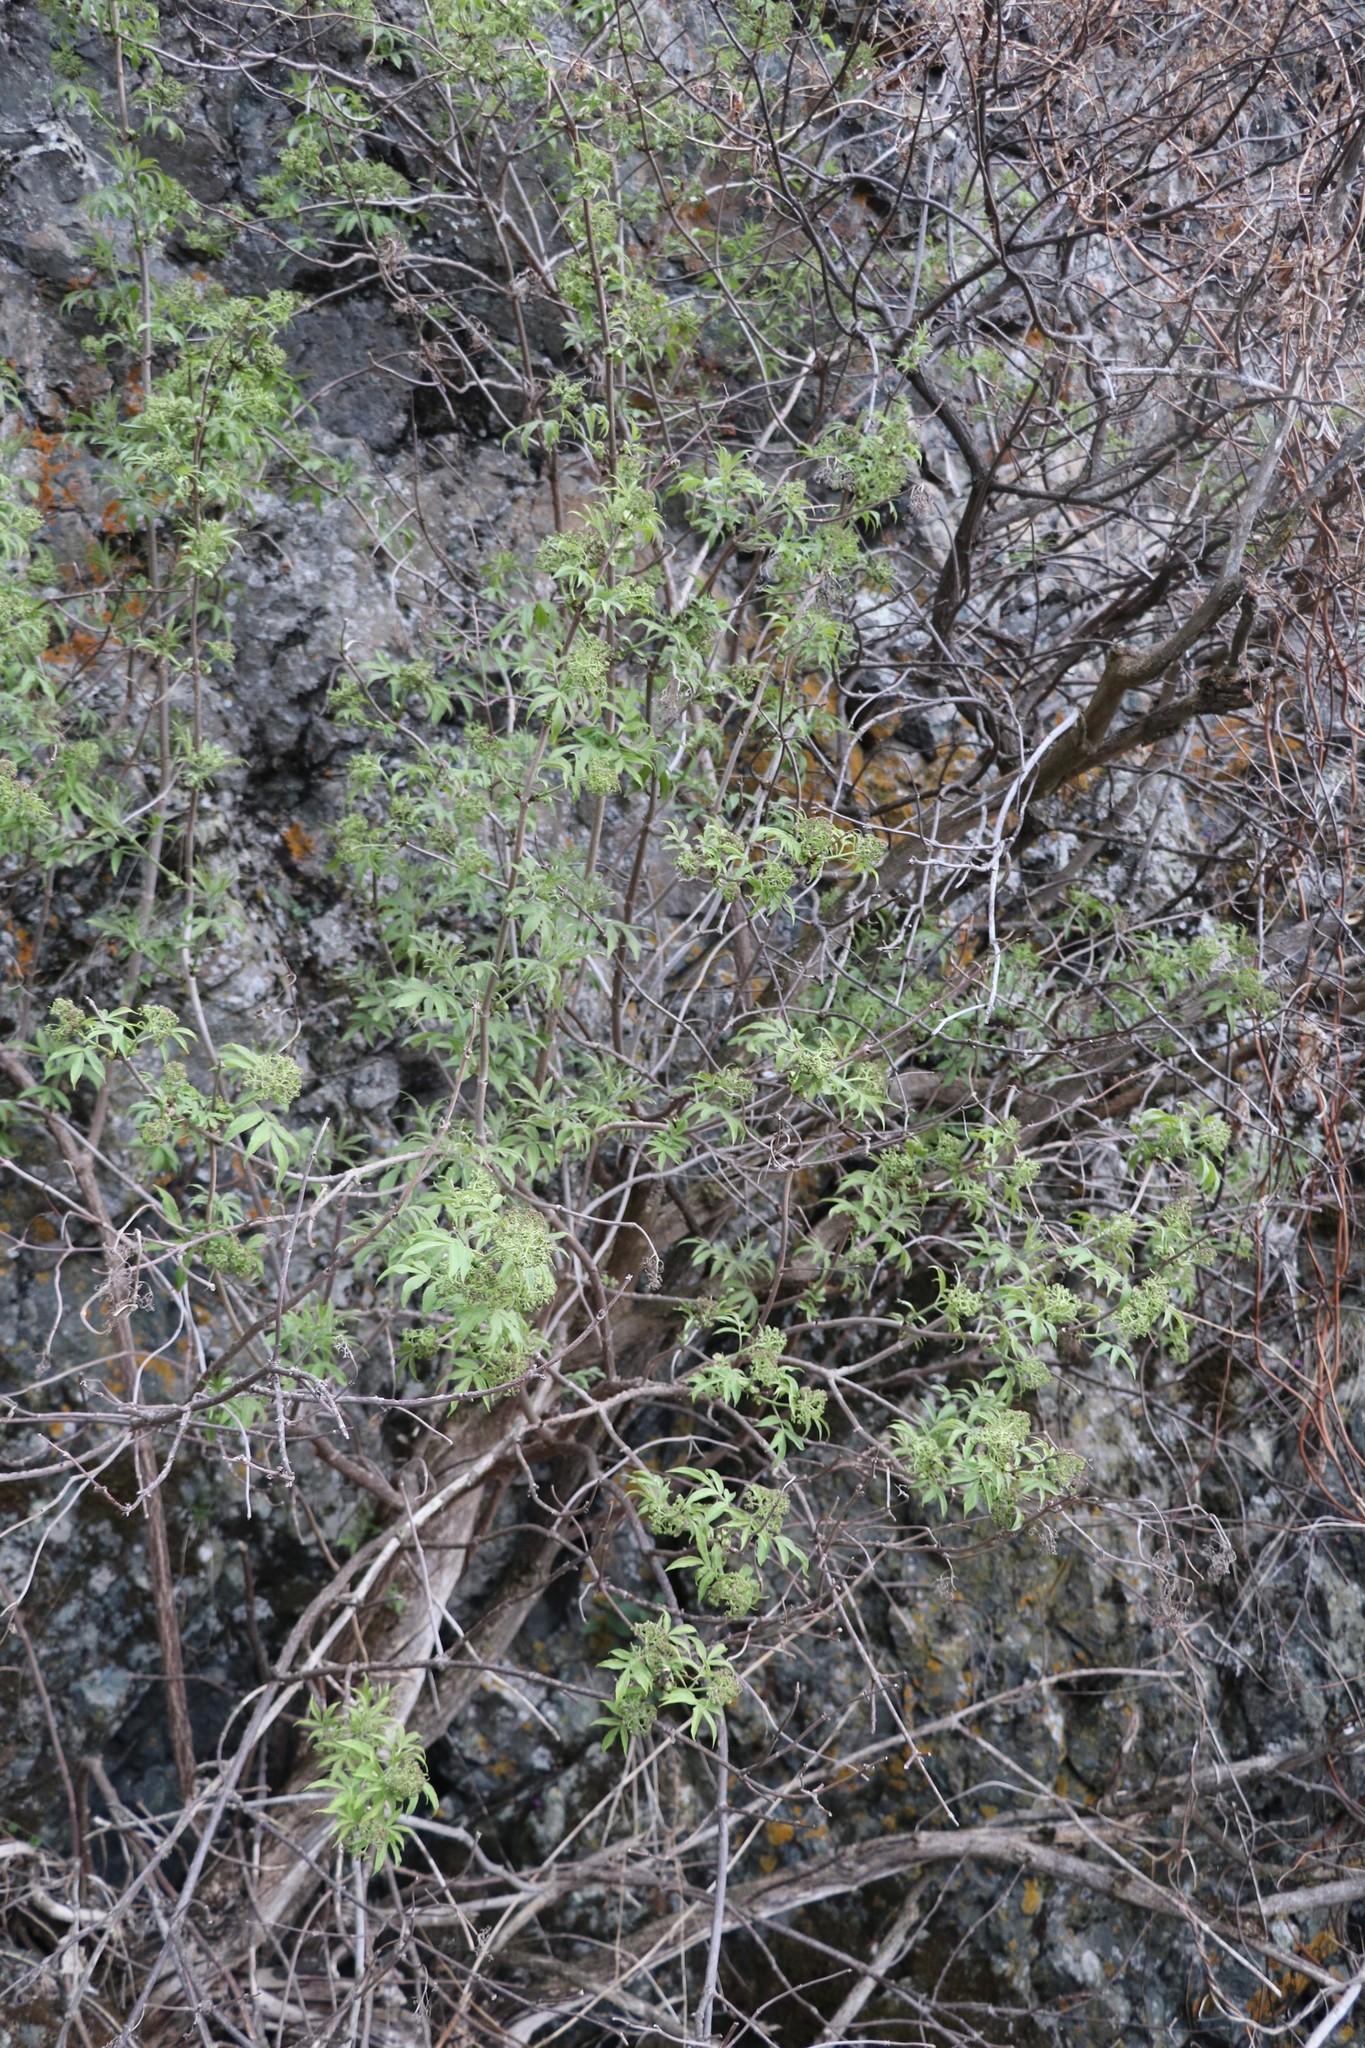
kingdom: Plantae
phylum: Tracheophyta
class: Magnoliopsida
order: Dipsacales
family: Viburnaceae
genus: Sambucus
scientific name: Sambucus sibirica
